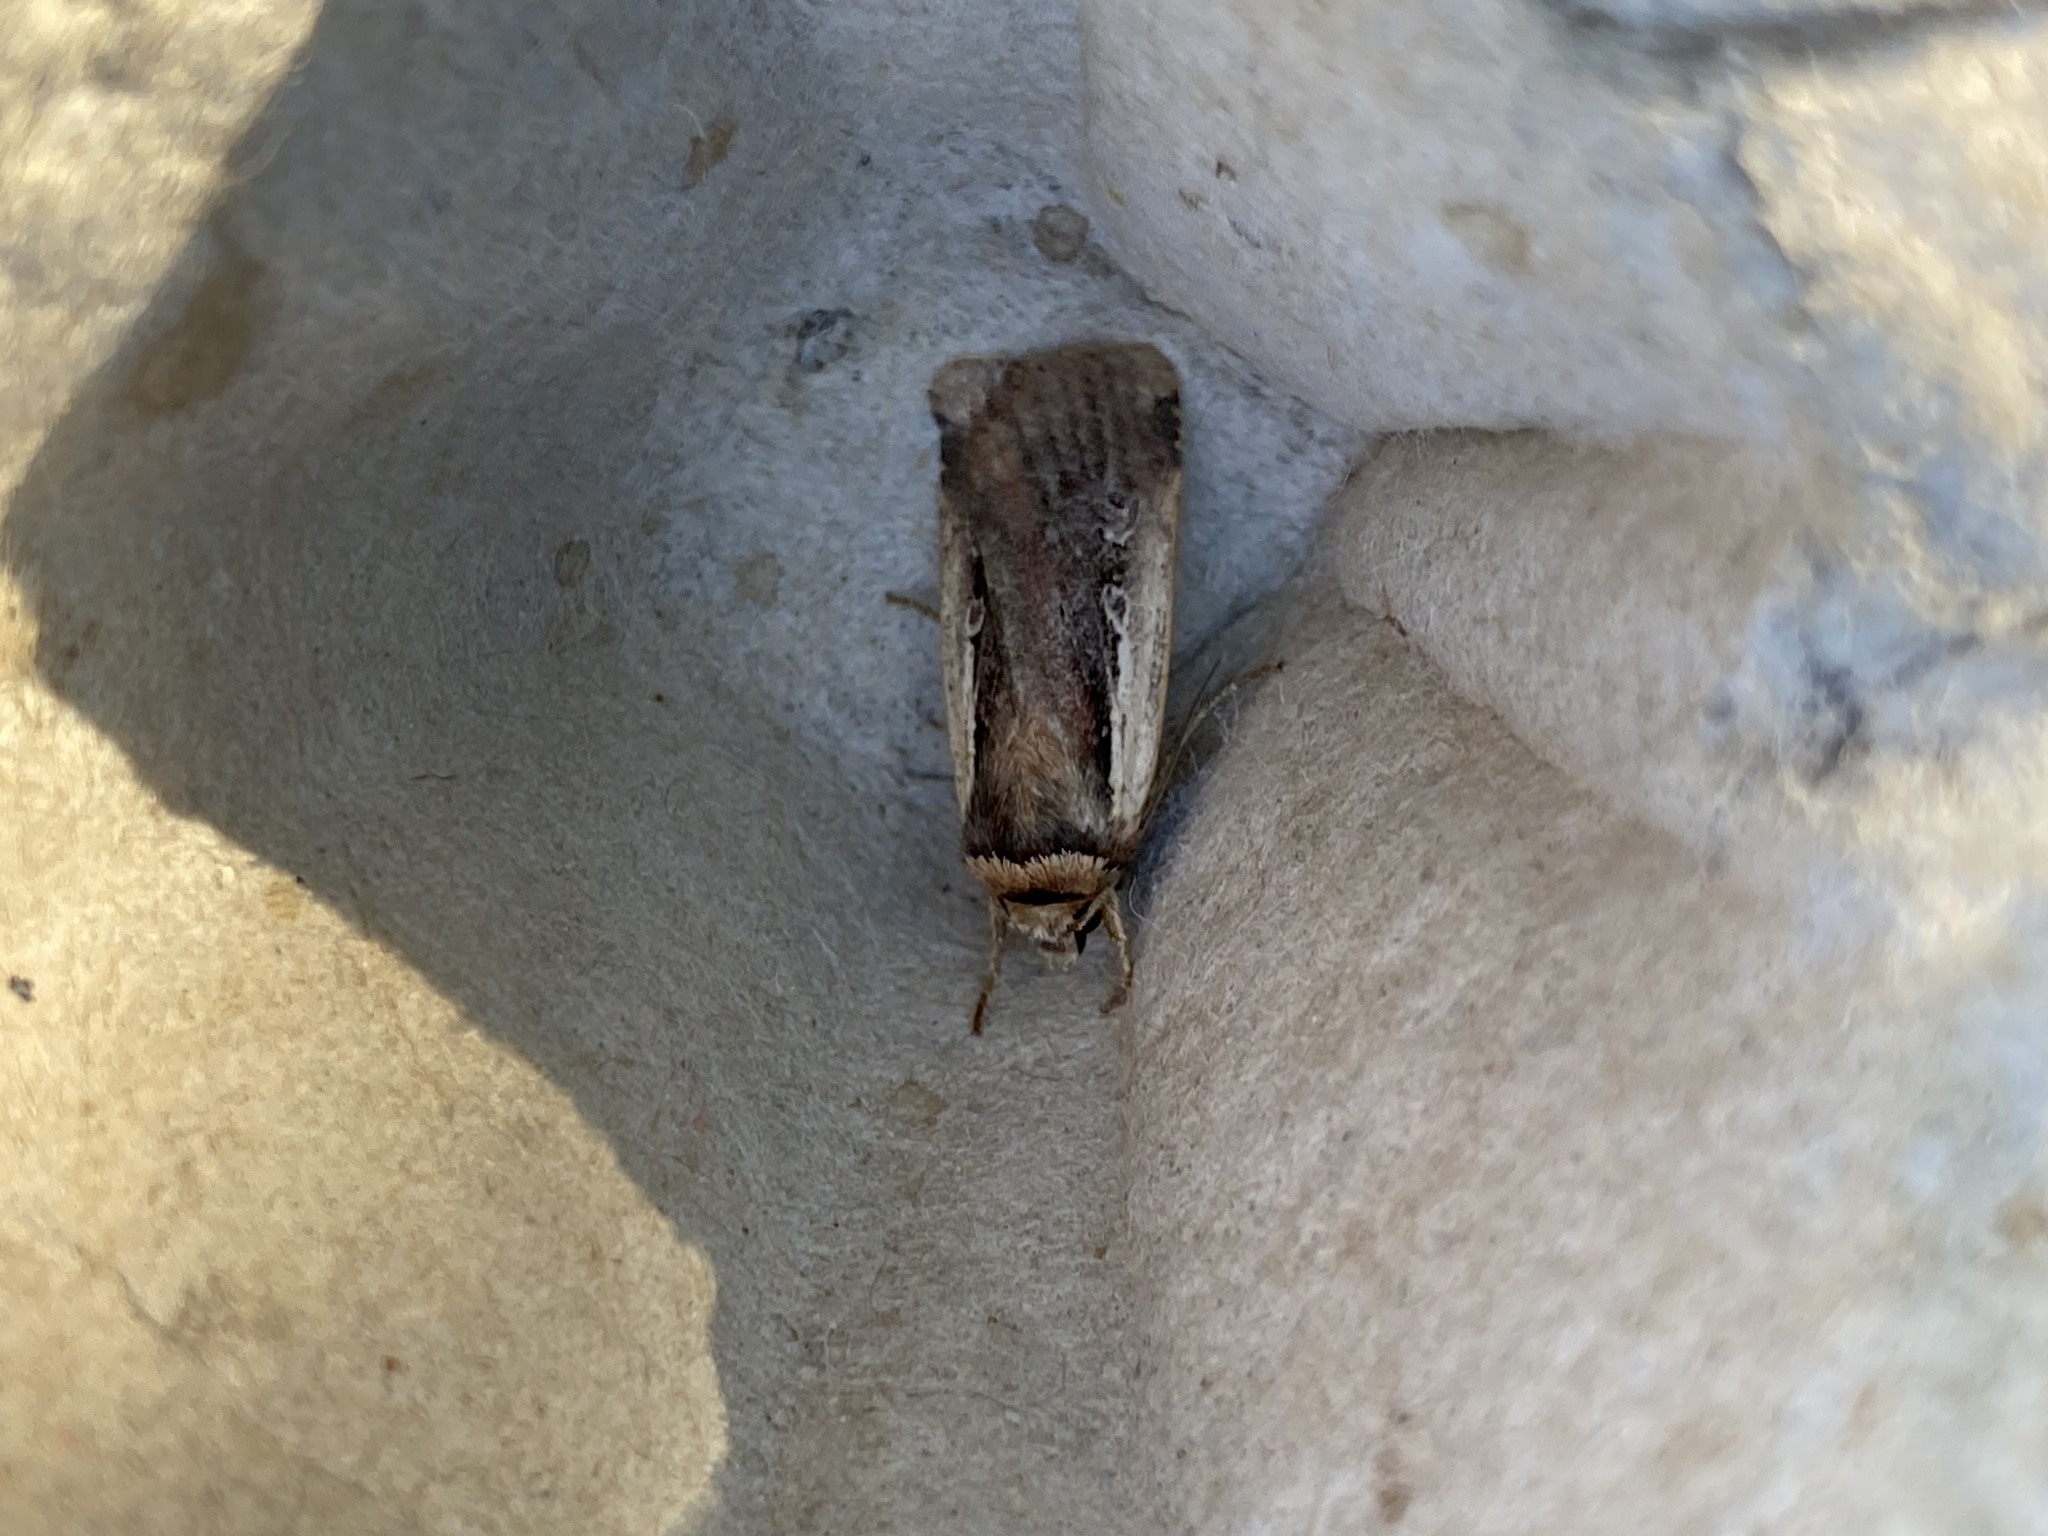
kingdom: Animalia
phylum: Arthropoda
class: Insecta
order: Lepidoptera
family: Noctuidae
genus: Ochropleura
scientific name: Ochropleura plecta
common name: Flame shoulder
